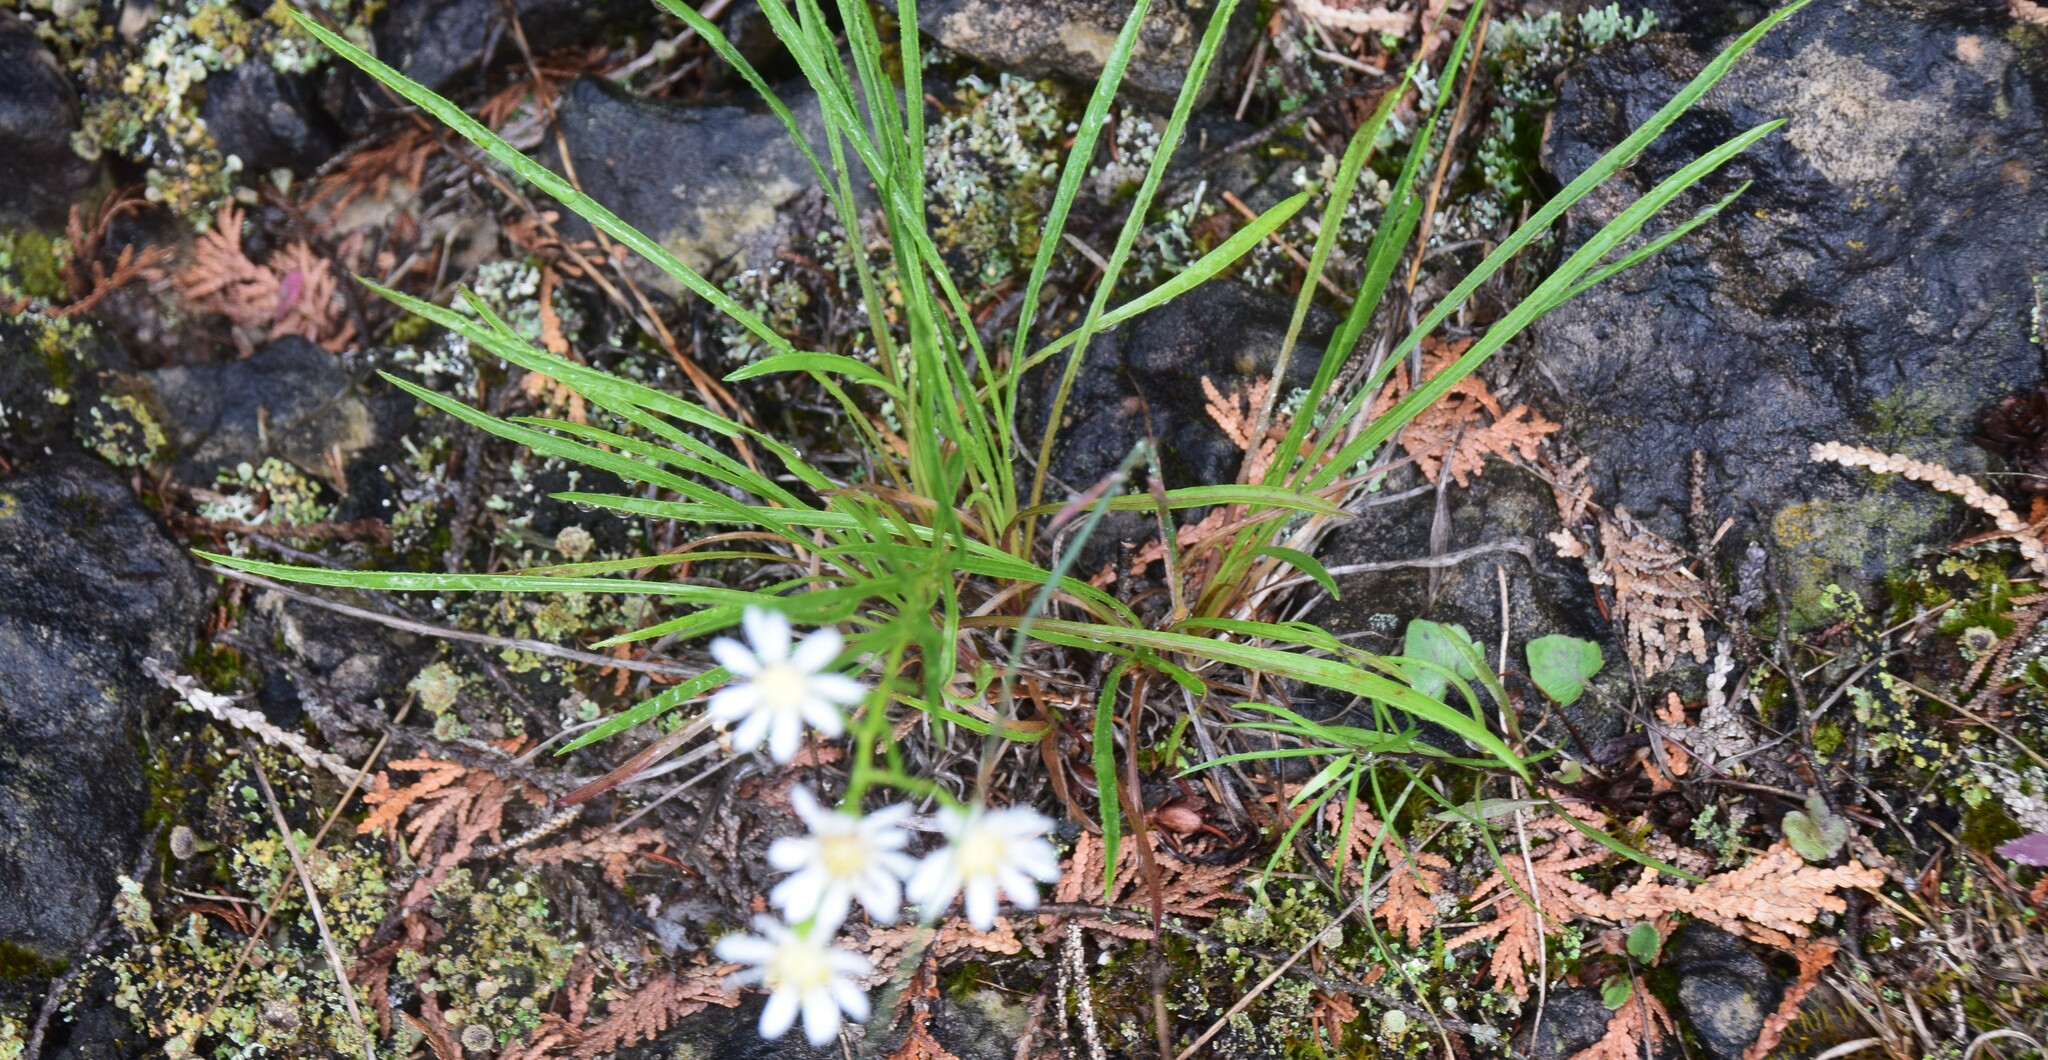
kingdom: Plantae
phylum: Tracheophyta
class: Magnoliopsida
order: Asterales
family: Asteraceae
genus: Solidago
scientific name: Solidago ptarmicoides
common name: White flat-top goldenrod
